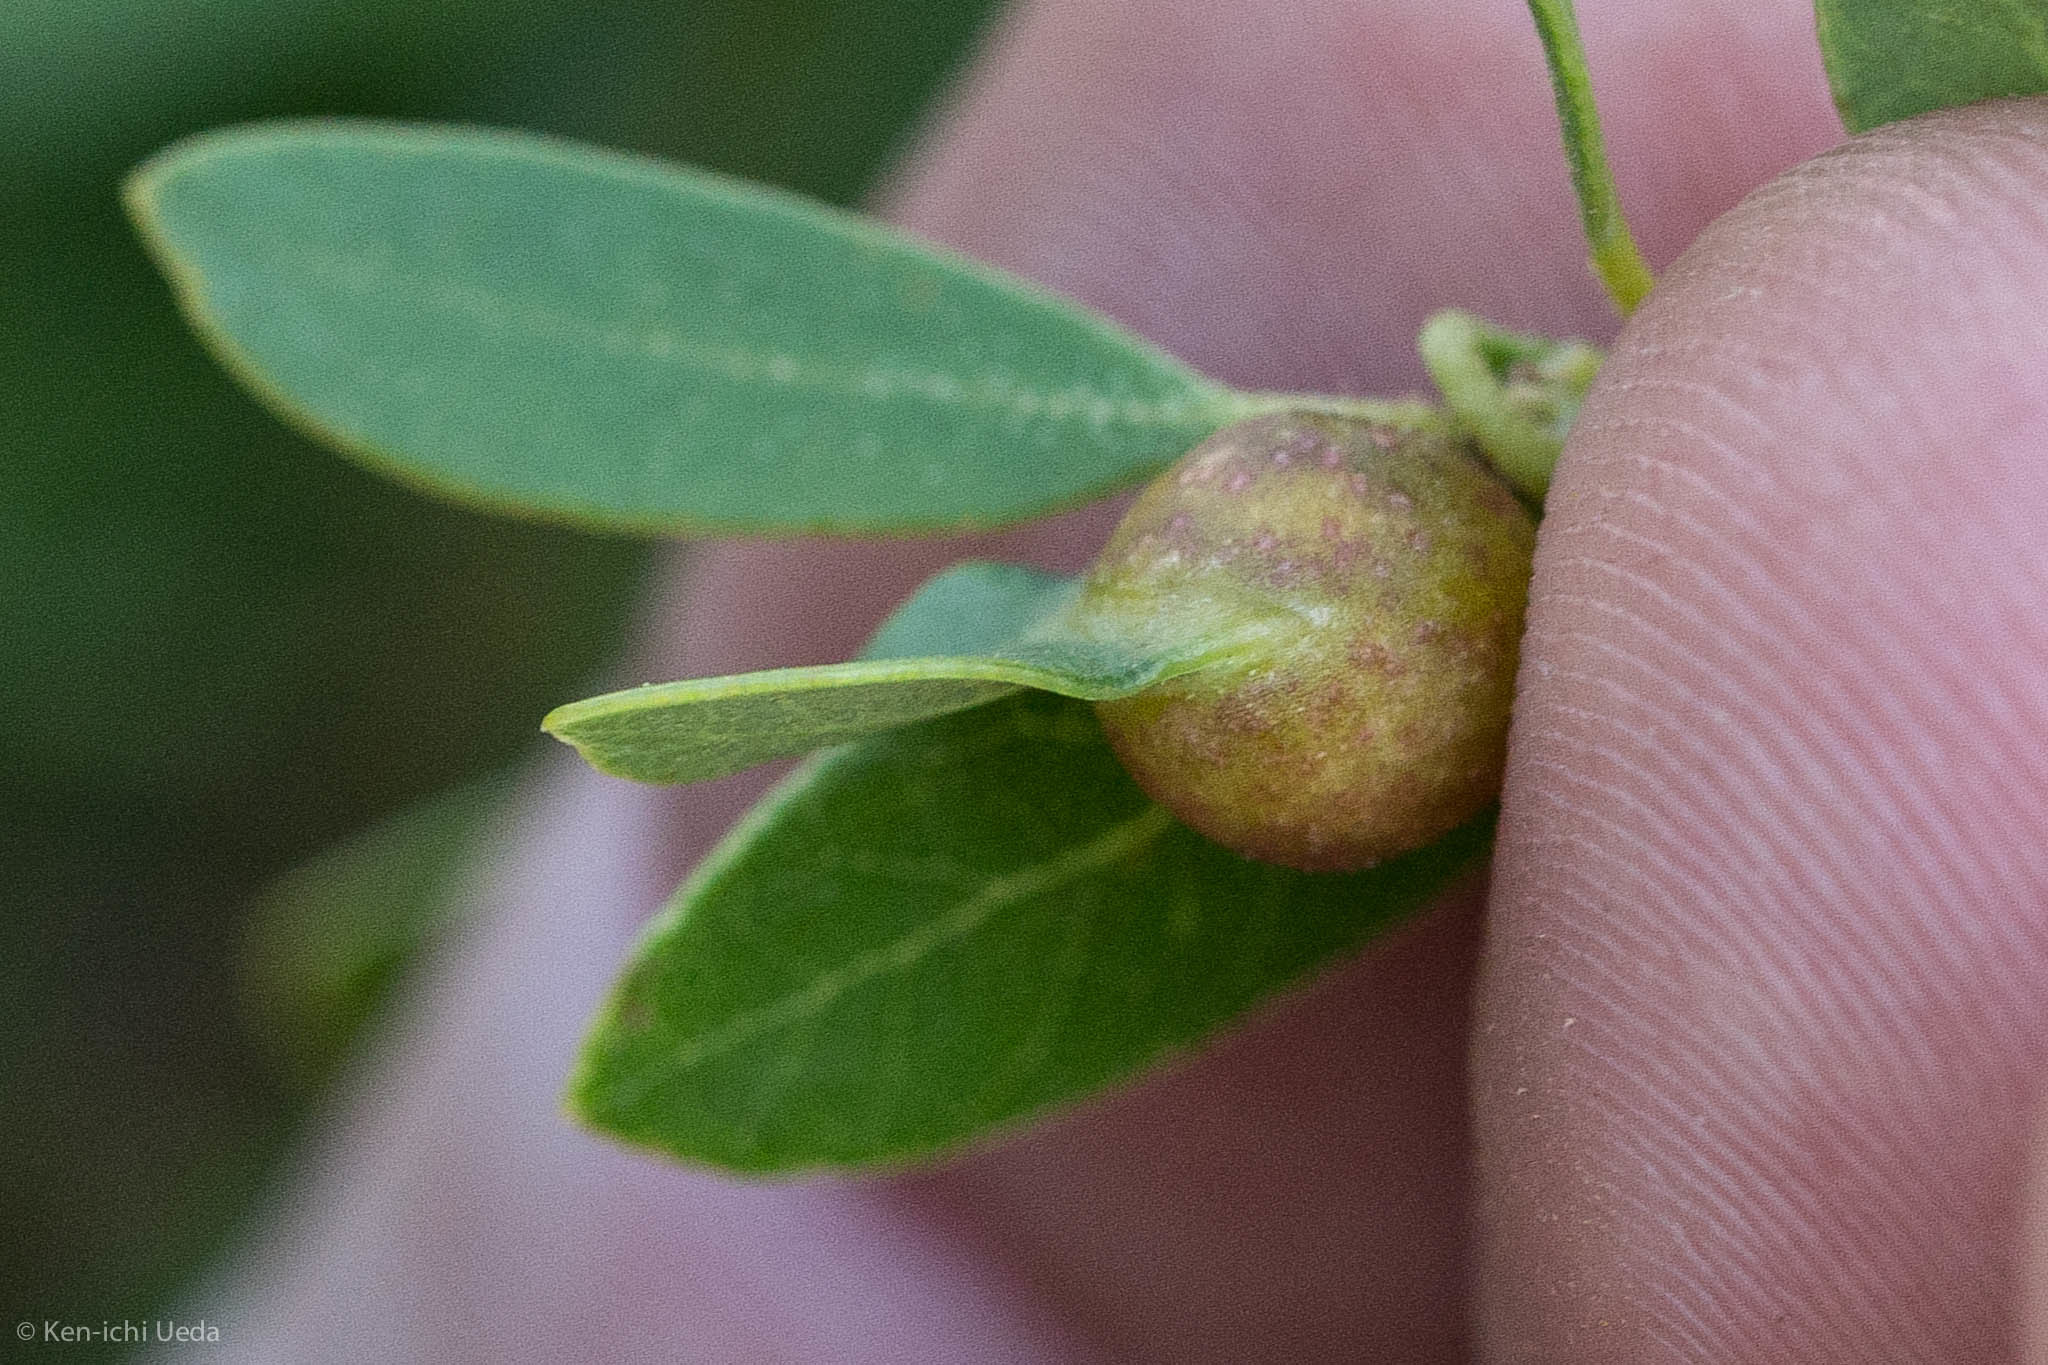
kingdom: Animalia
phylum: Arthropoda
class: Insecta
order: Hymenoptera
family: Cynipidae
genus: Heteroecus
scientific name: Heteroecus
